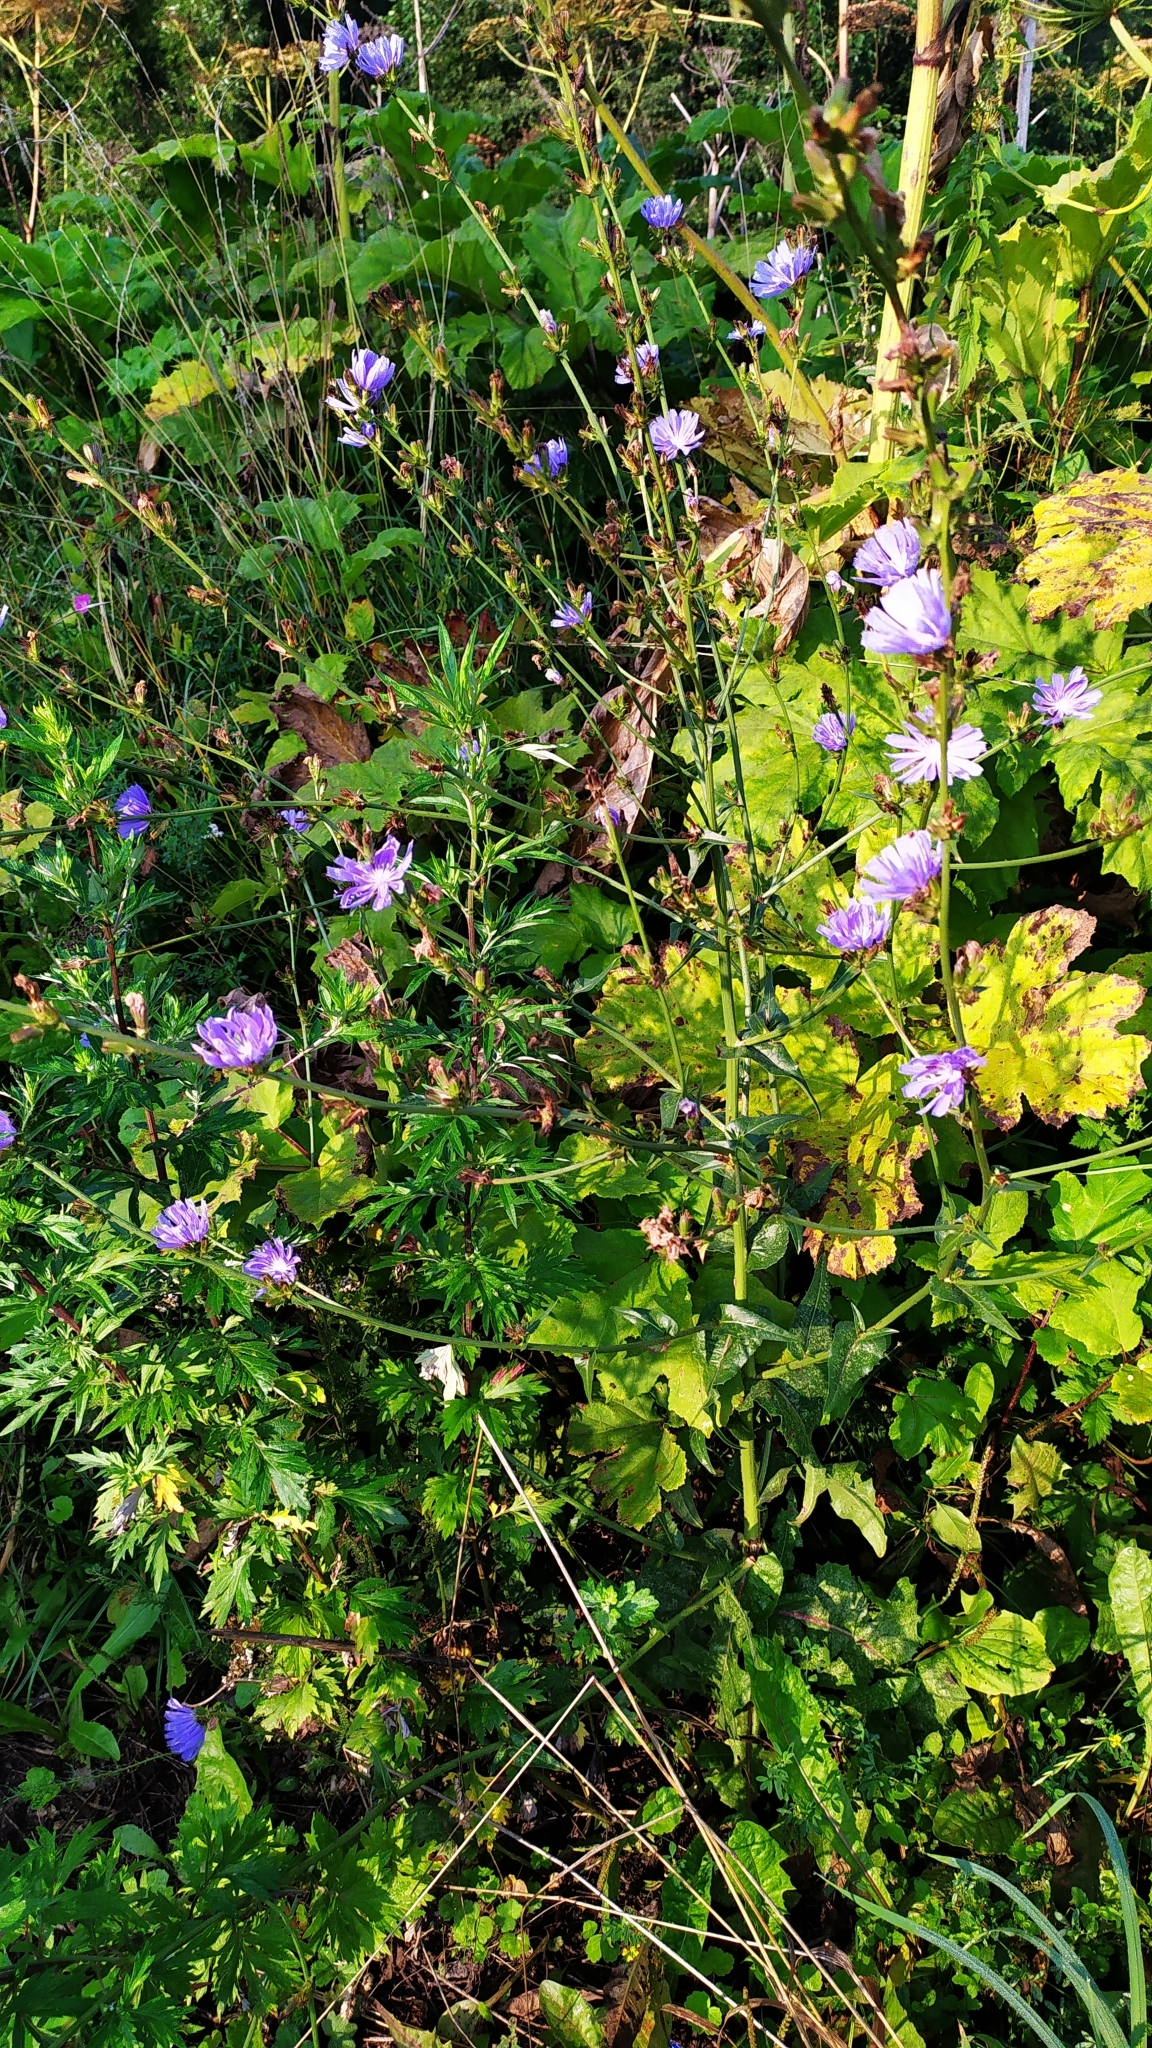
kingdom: Plantae
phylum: Tracheophyta
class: Magnoliopsida
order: Asterales
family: Asteraceae
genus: Cichorium
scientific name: Cichorium intybus
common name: Chicory
